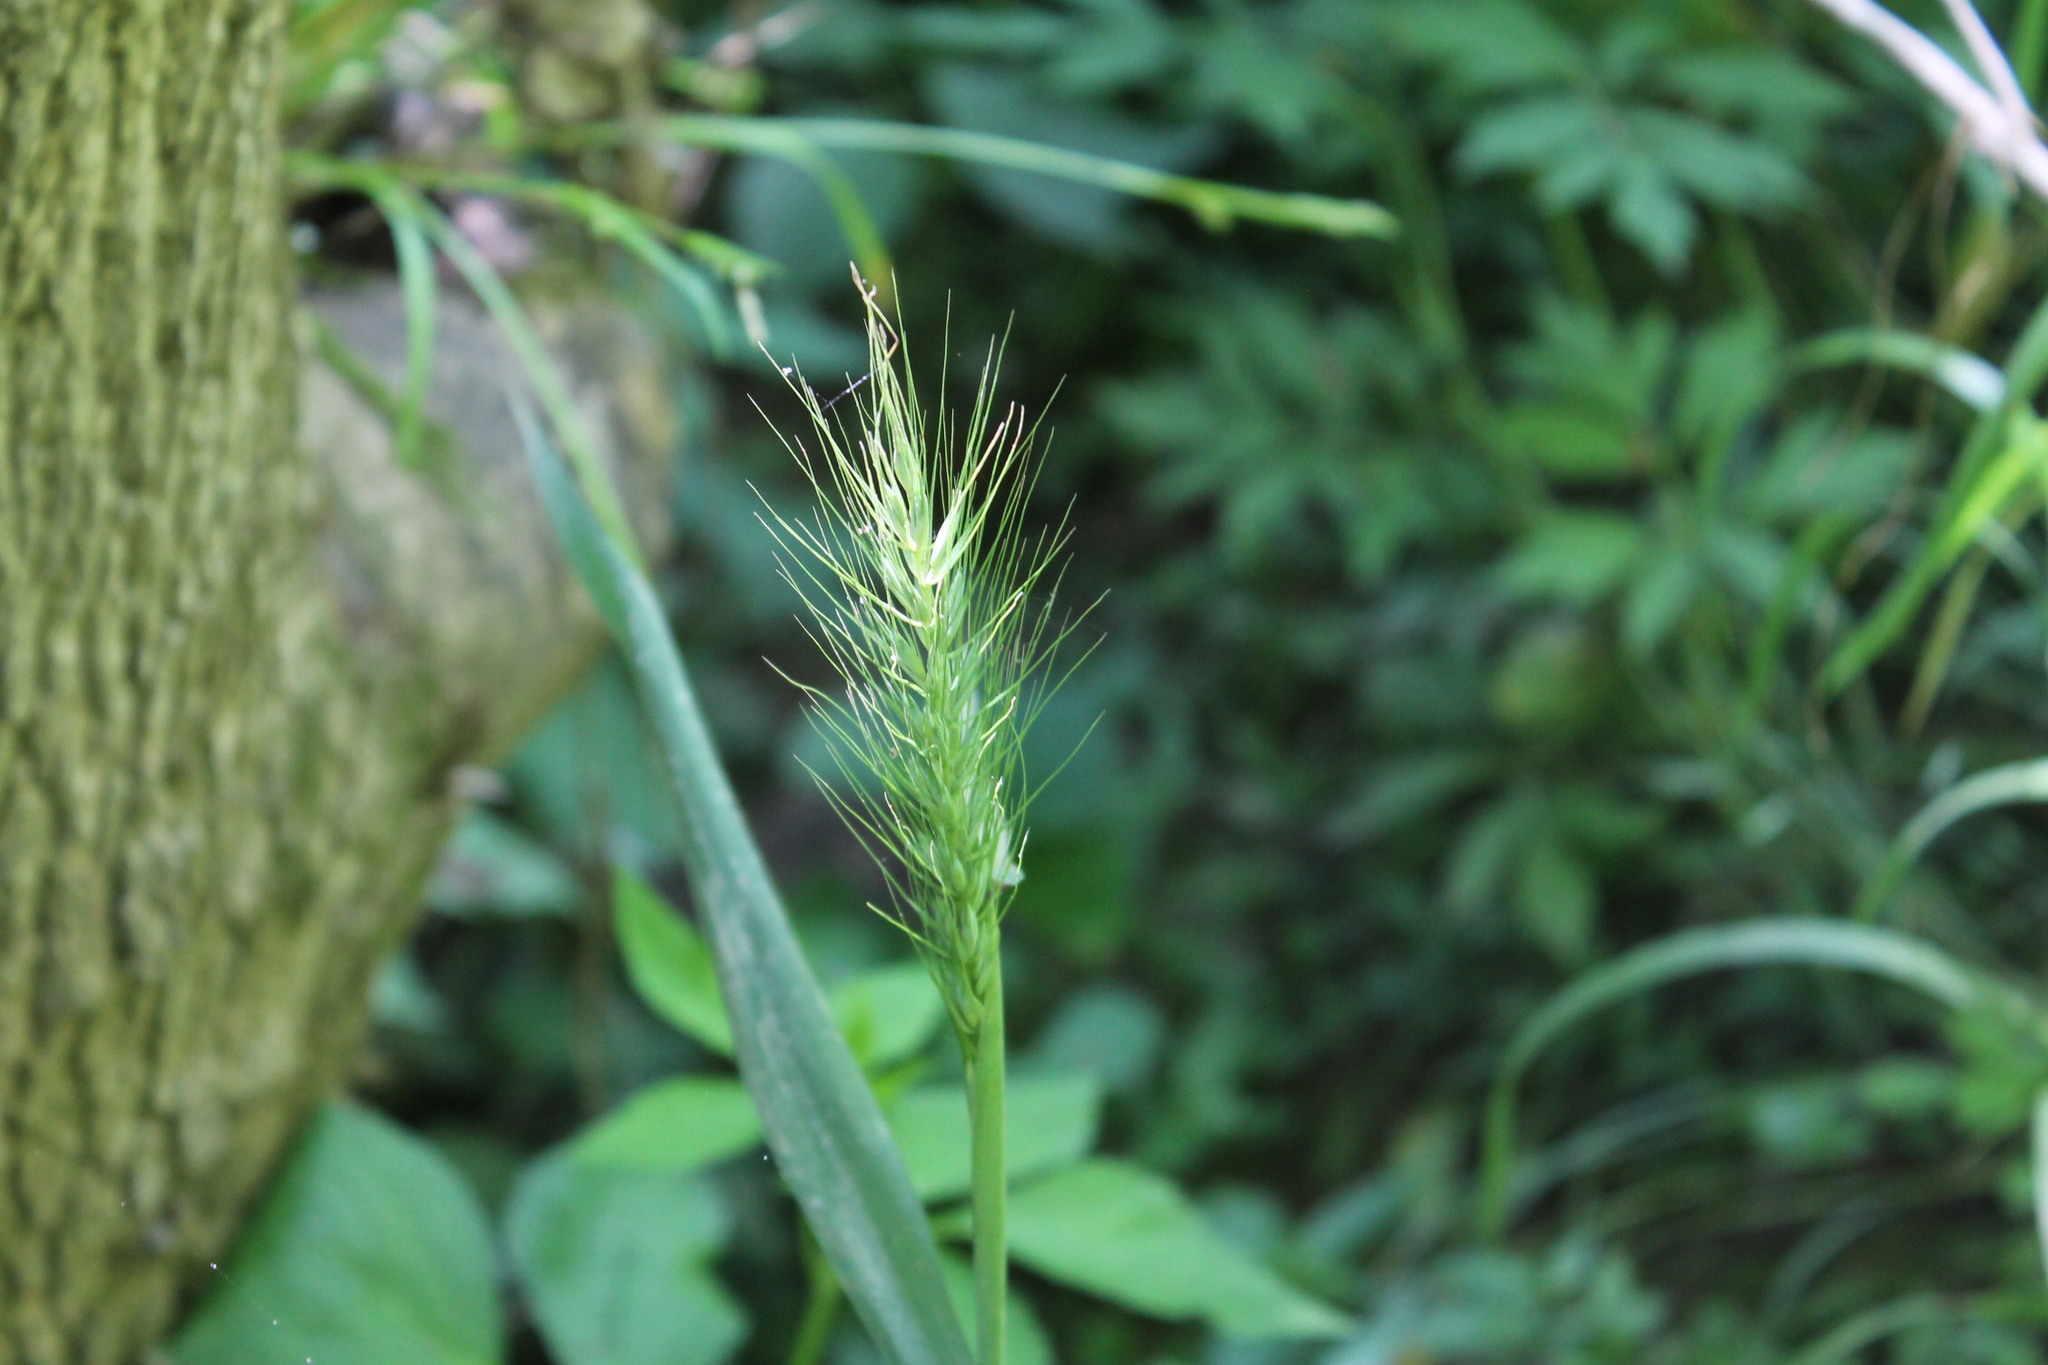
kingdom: Plantae
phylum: Tracheophyta
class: Liliopsida
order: Poales
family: Poaceae
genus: Elymus
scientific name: Elymus villosus
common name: Downy wild rye
